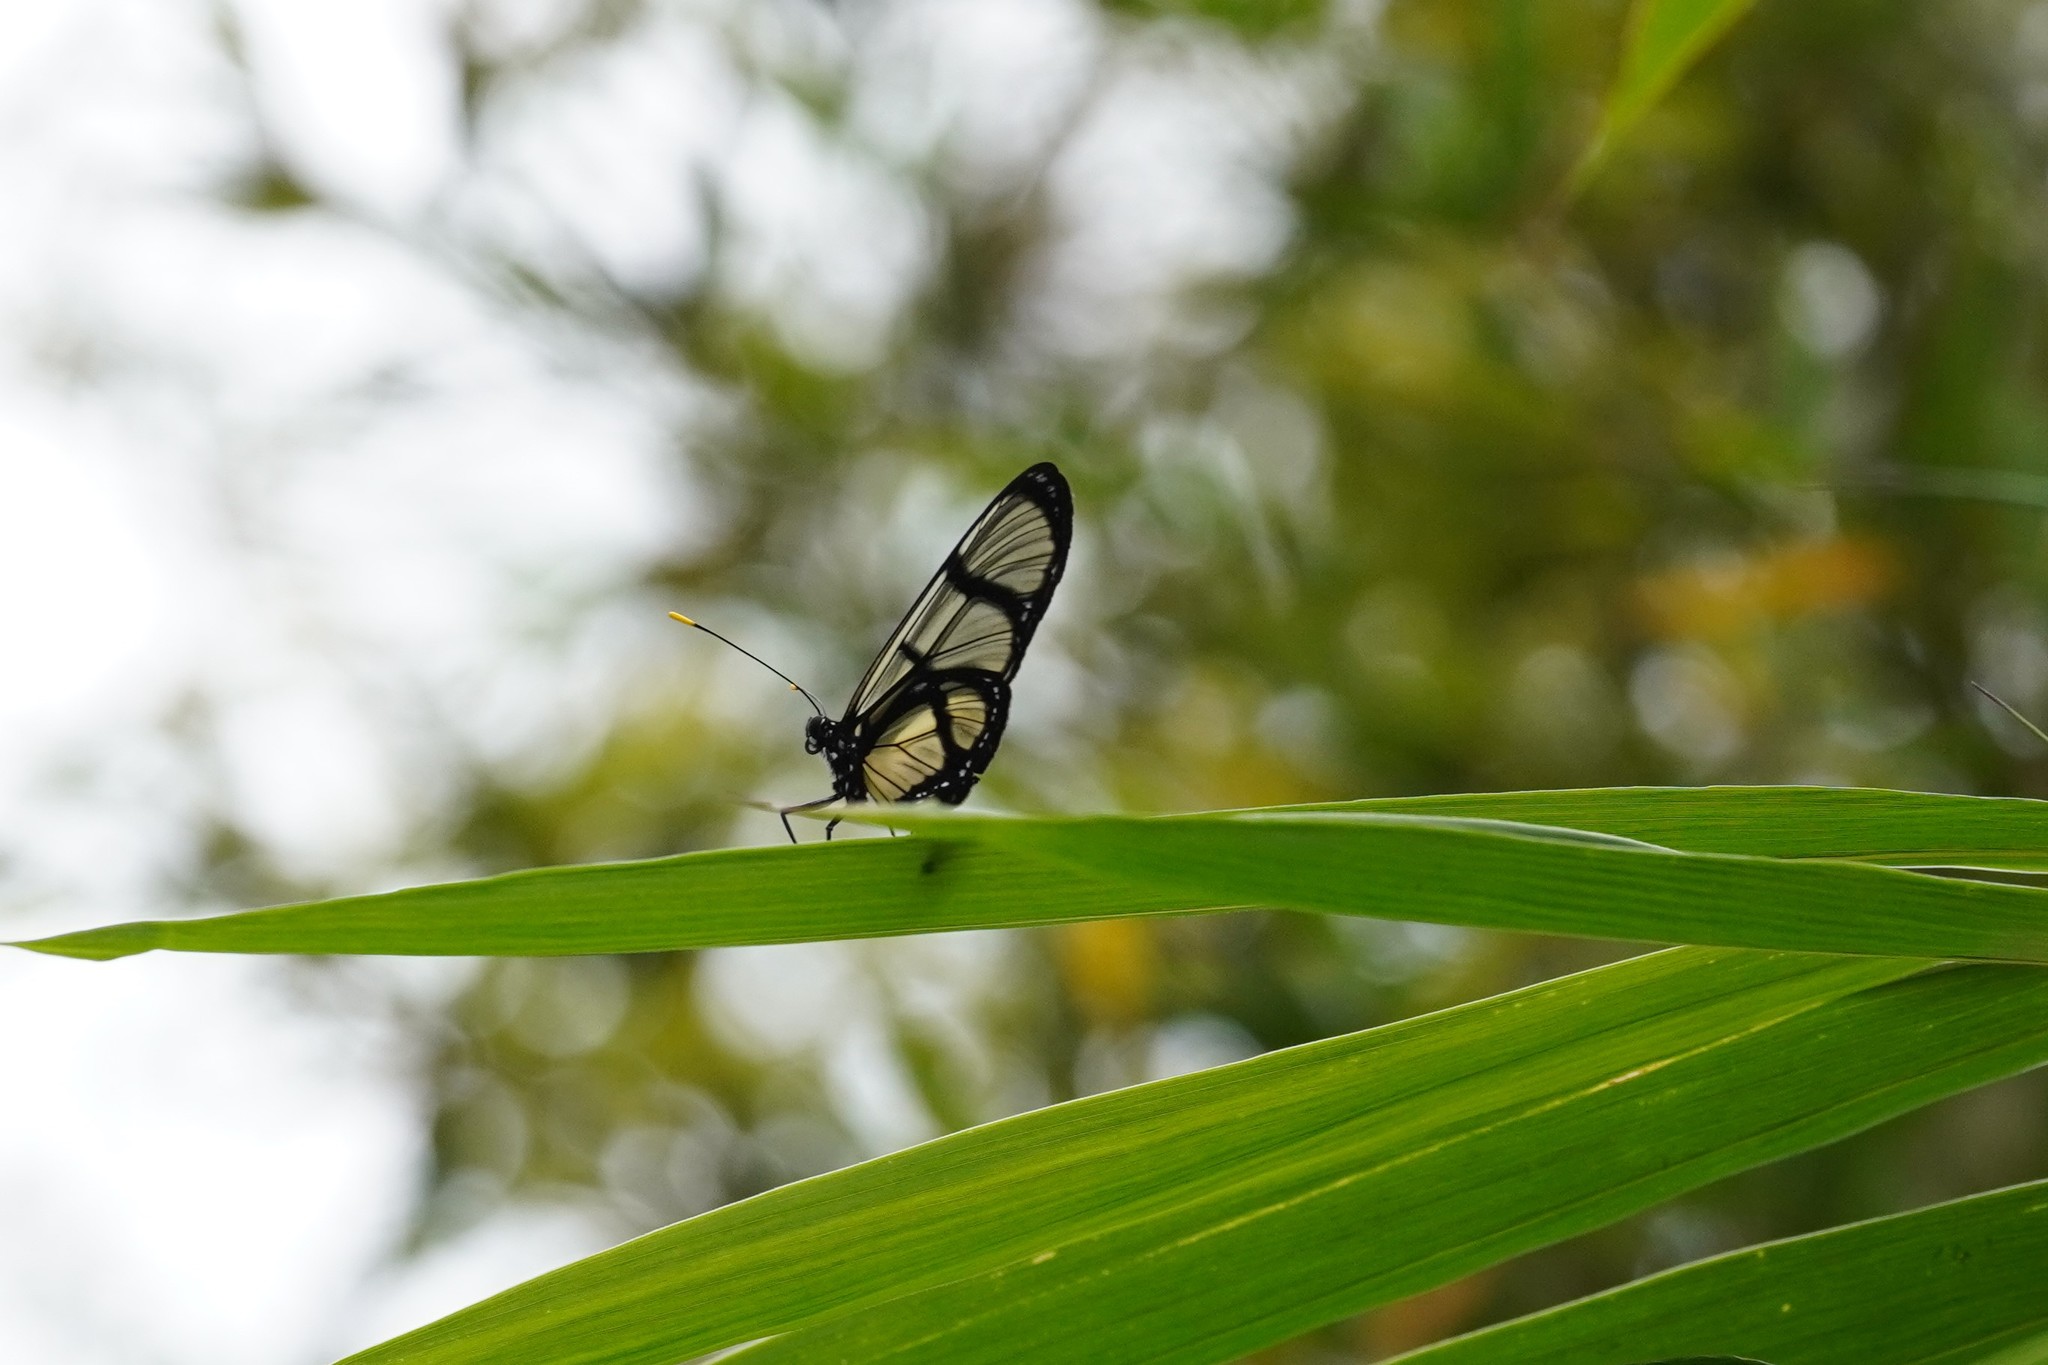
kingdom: Animalia
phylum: Arthropoda
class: Insecta
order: Lepidoptera
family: Nymphalidae
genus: Methona
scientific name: Methona confusa
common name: Confusa tigerwing
